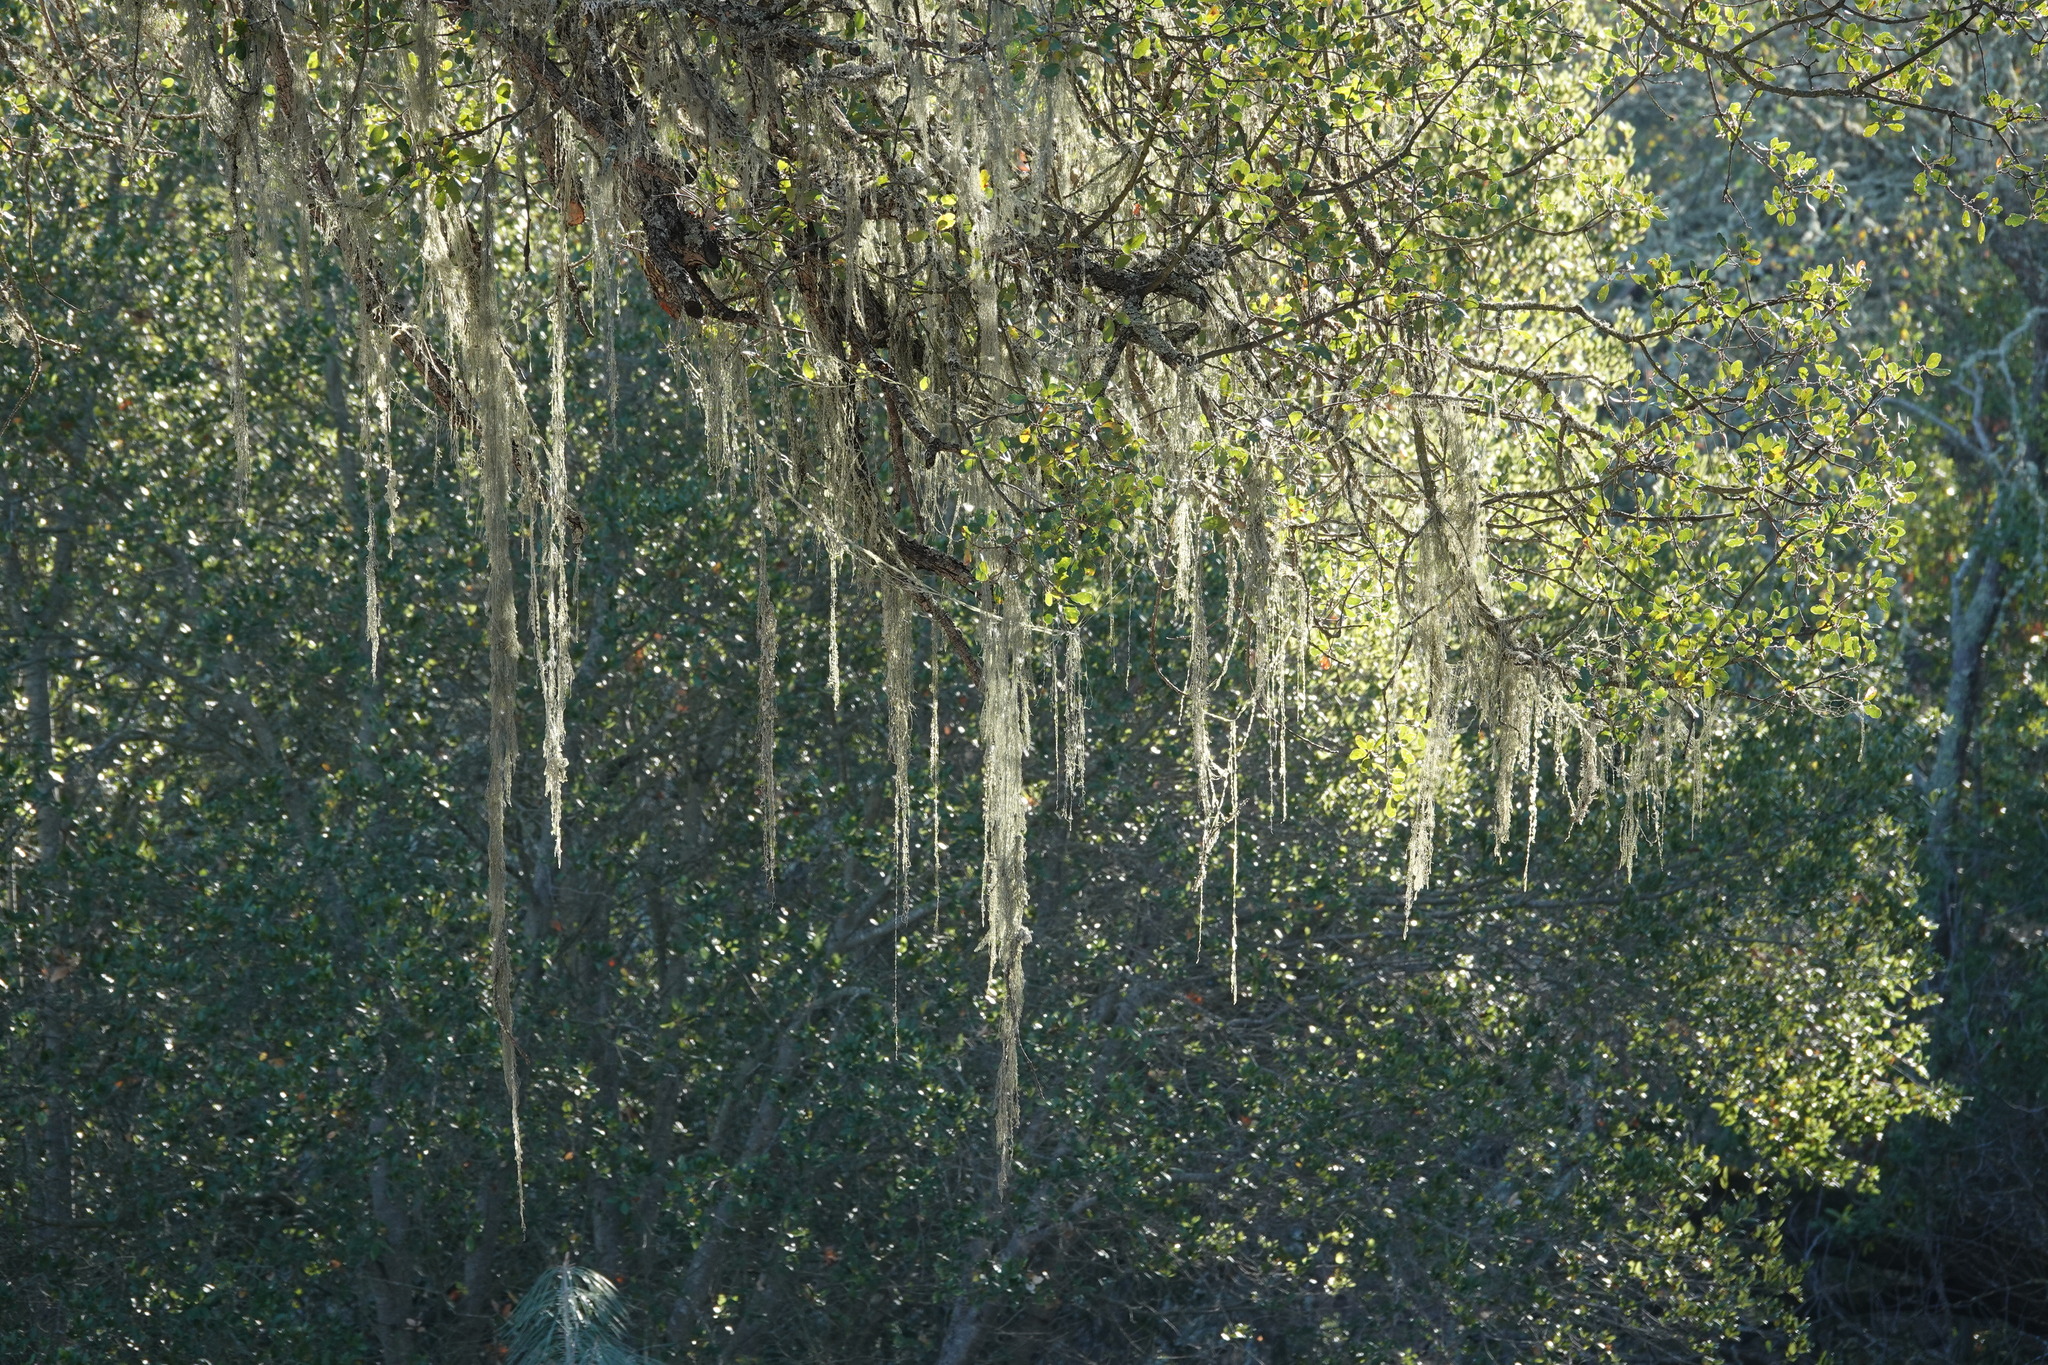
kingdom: Fungi
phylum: Ascomycota
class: Lecanoromycetes
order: Lecanorales
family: Ramalinaceae
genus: Ramalina
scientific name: Ramalina menziesii
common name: Lace lichen
